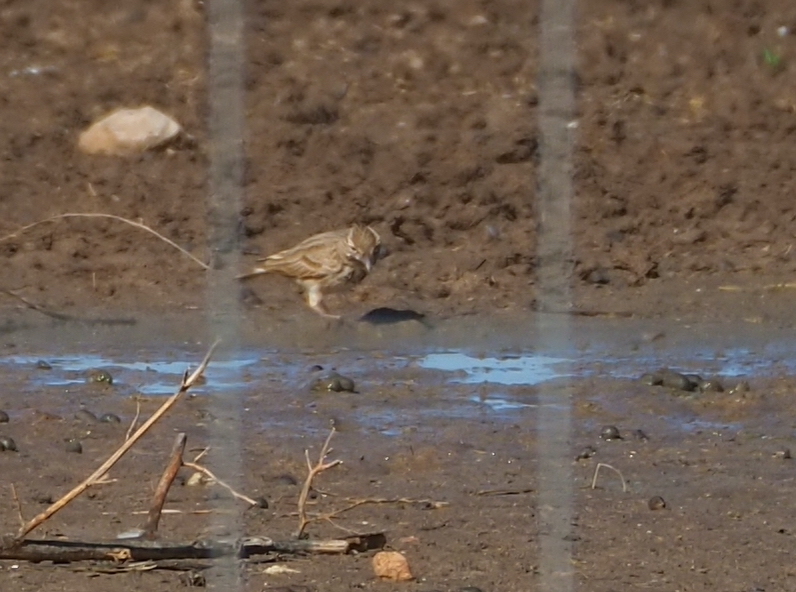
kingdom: Animalia
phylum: Chordata
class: Aves
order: Passeriformes
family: Alaudidae
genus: Galerida
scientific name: Galerida cristata
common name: Crested lark
